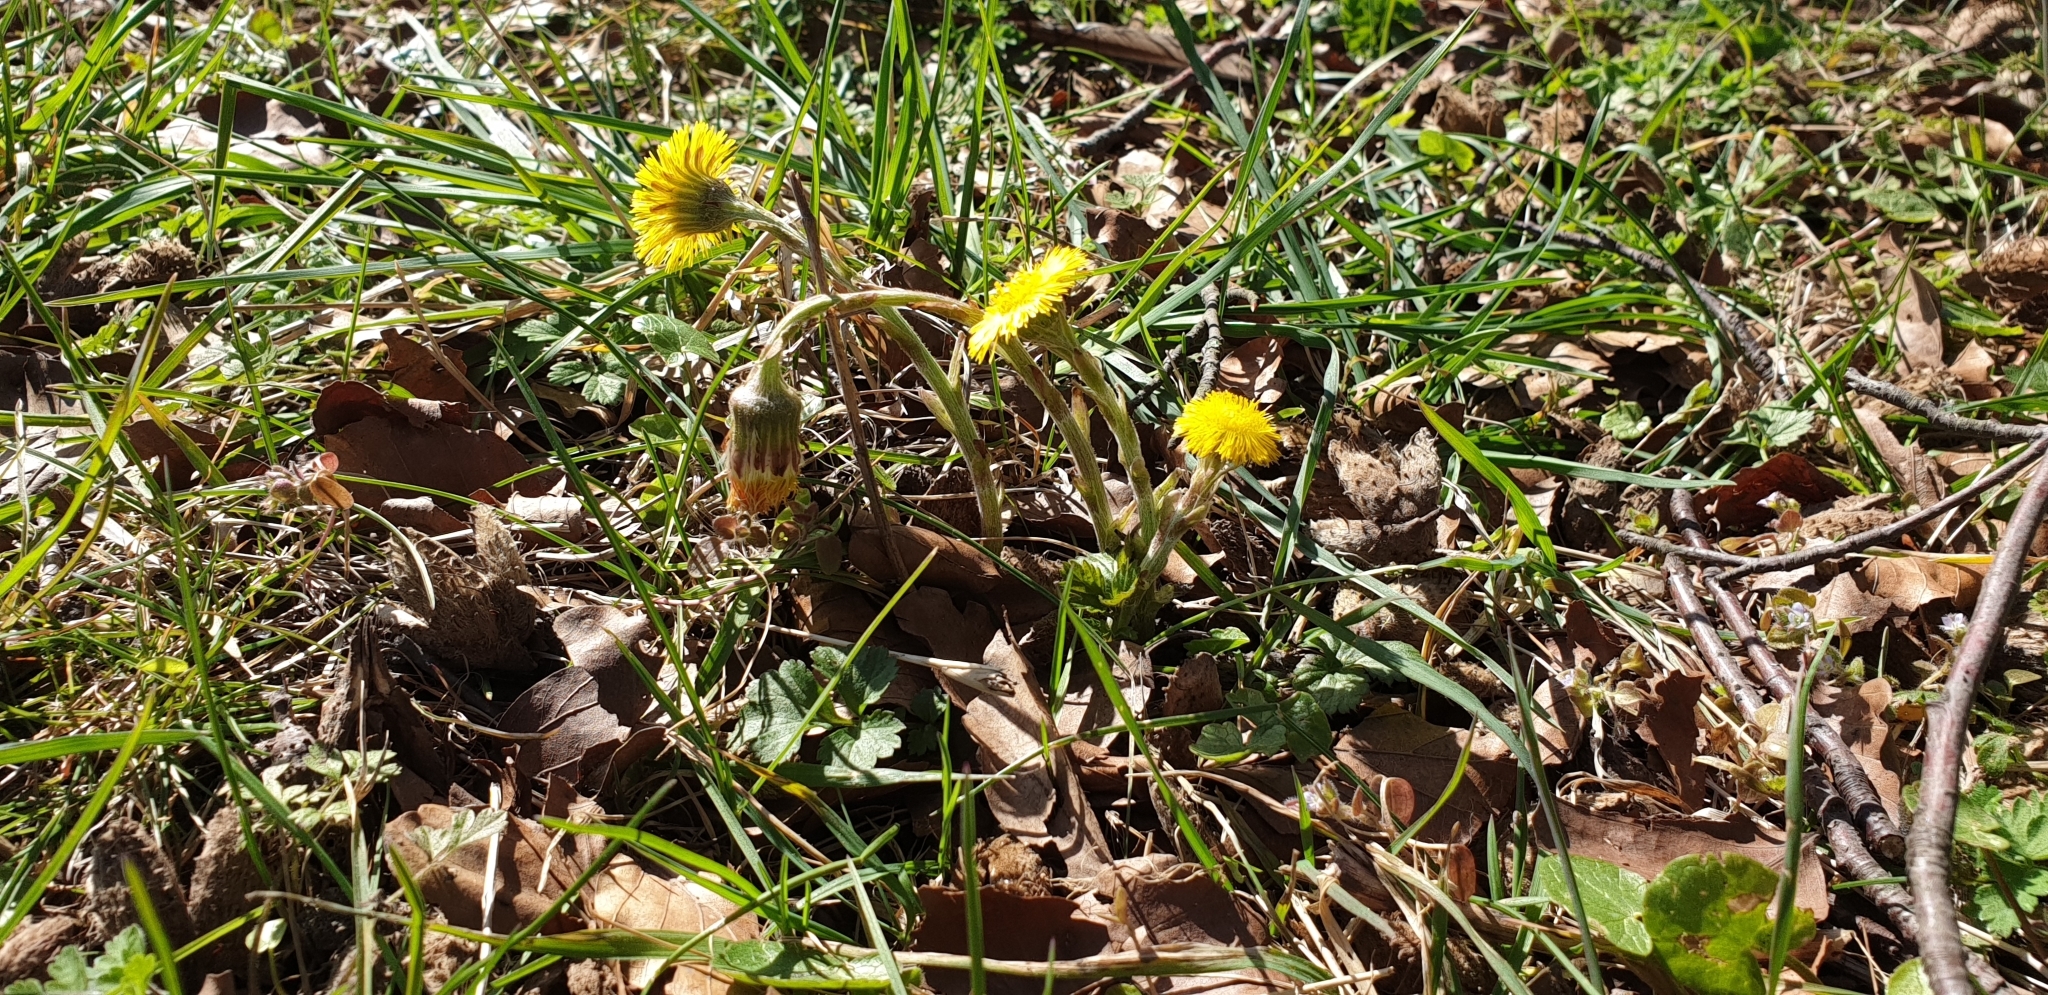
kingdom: Plantae
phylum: Tracheophyta
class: Magnoliopsida
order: Asterales
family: Asteraceae
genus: Tussilago
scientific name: Tussilago farfara
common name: Coltsfoot
